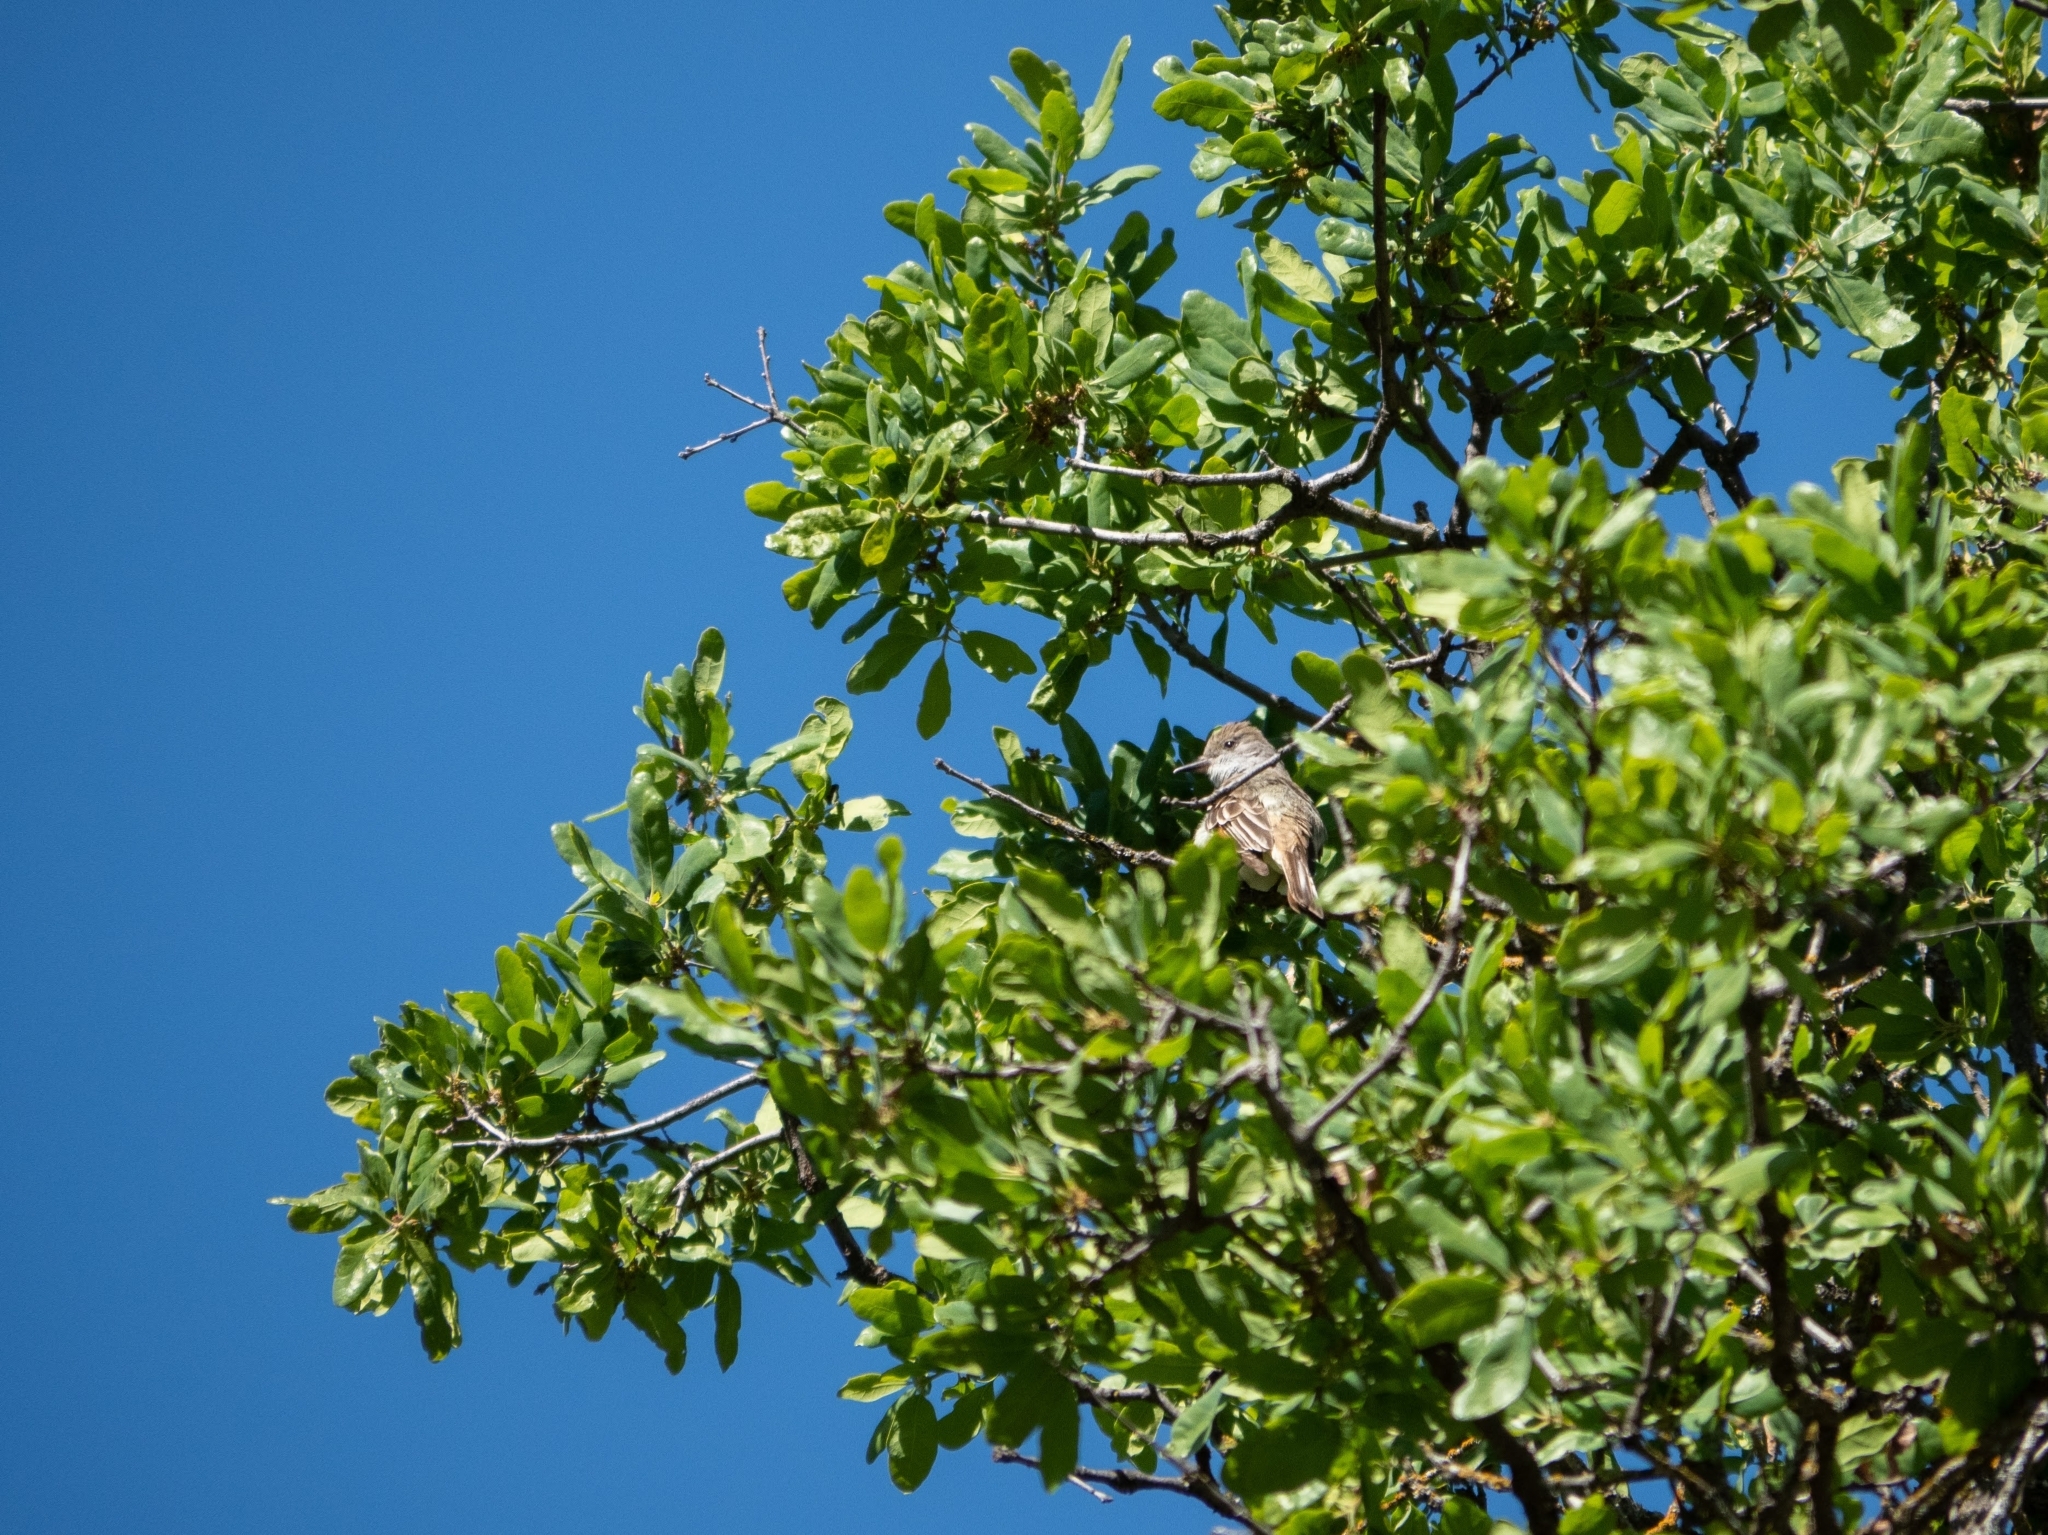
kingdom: Animalia
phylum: Chordata
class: Aves
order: Passeriformes
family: Tyrannidae
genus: Myiarchus
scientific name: Myiarchus cinerascens
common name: Ash-throated flycatcher
